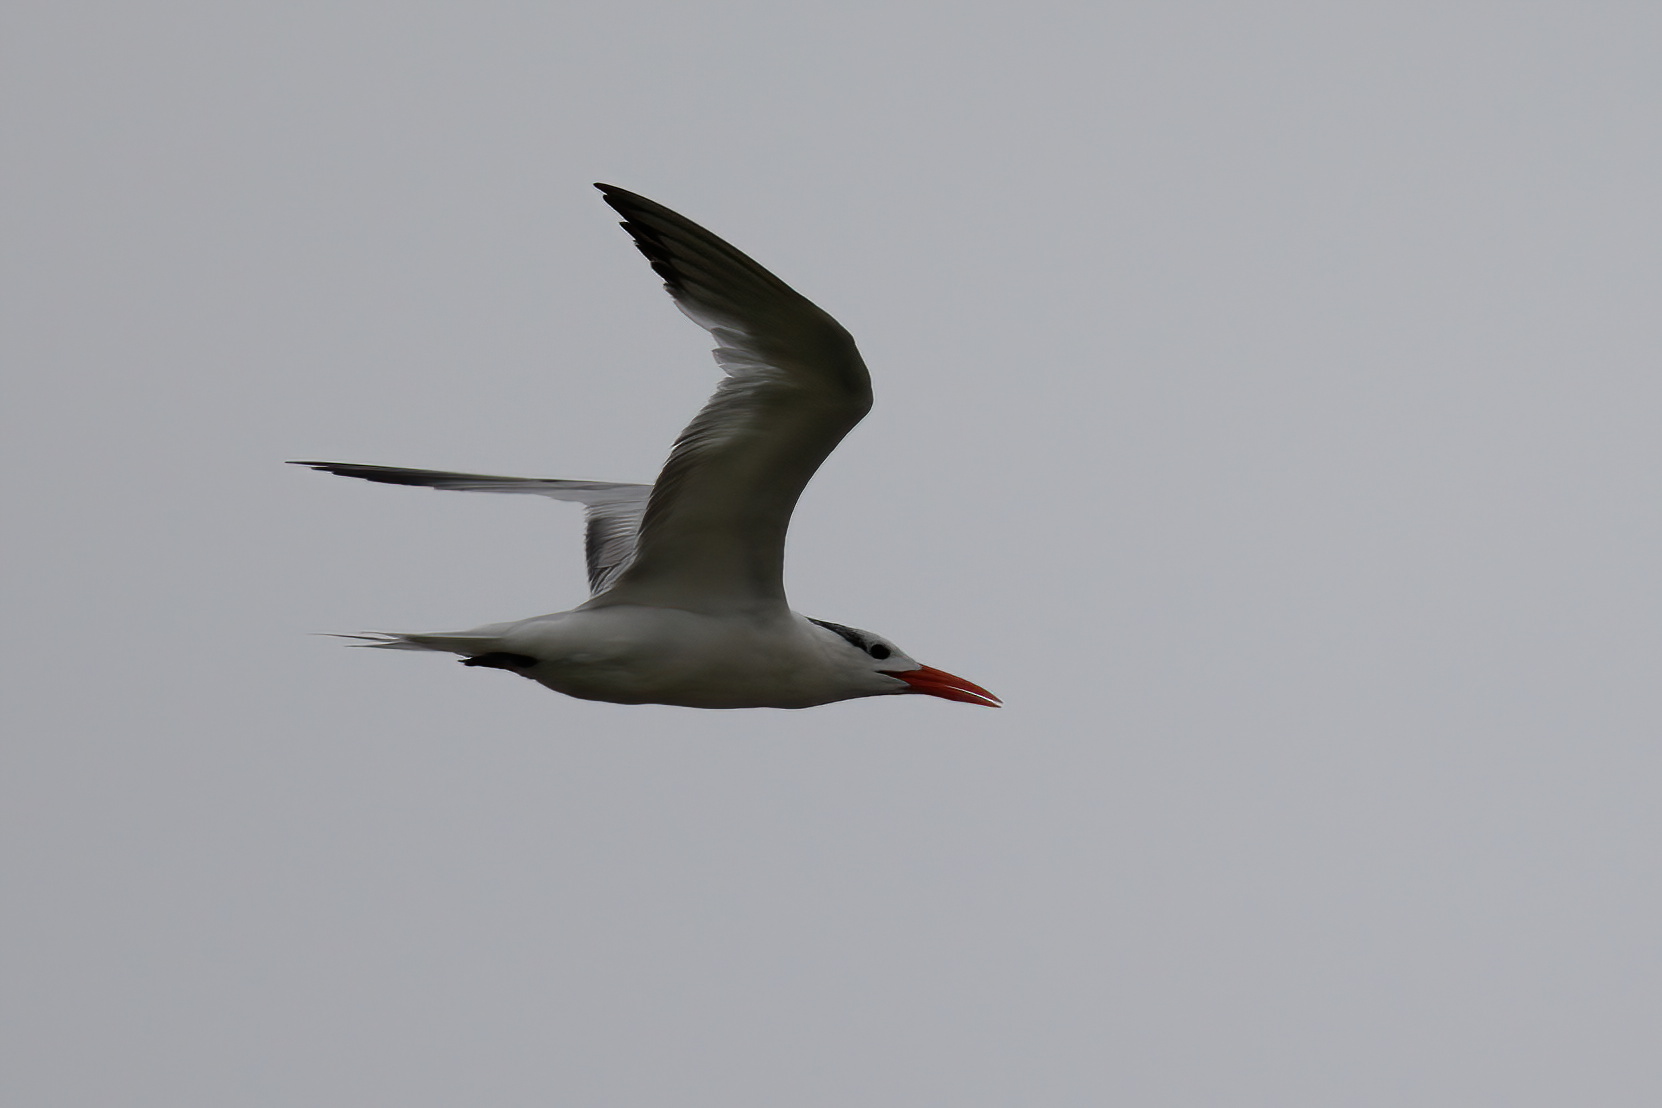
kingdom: Animalia
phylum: Chordata
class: Aves
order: Charadriiformes
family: Laridae
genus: Thalasseus
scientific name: Thalasseus maximus
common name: Royal tern
